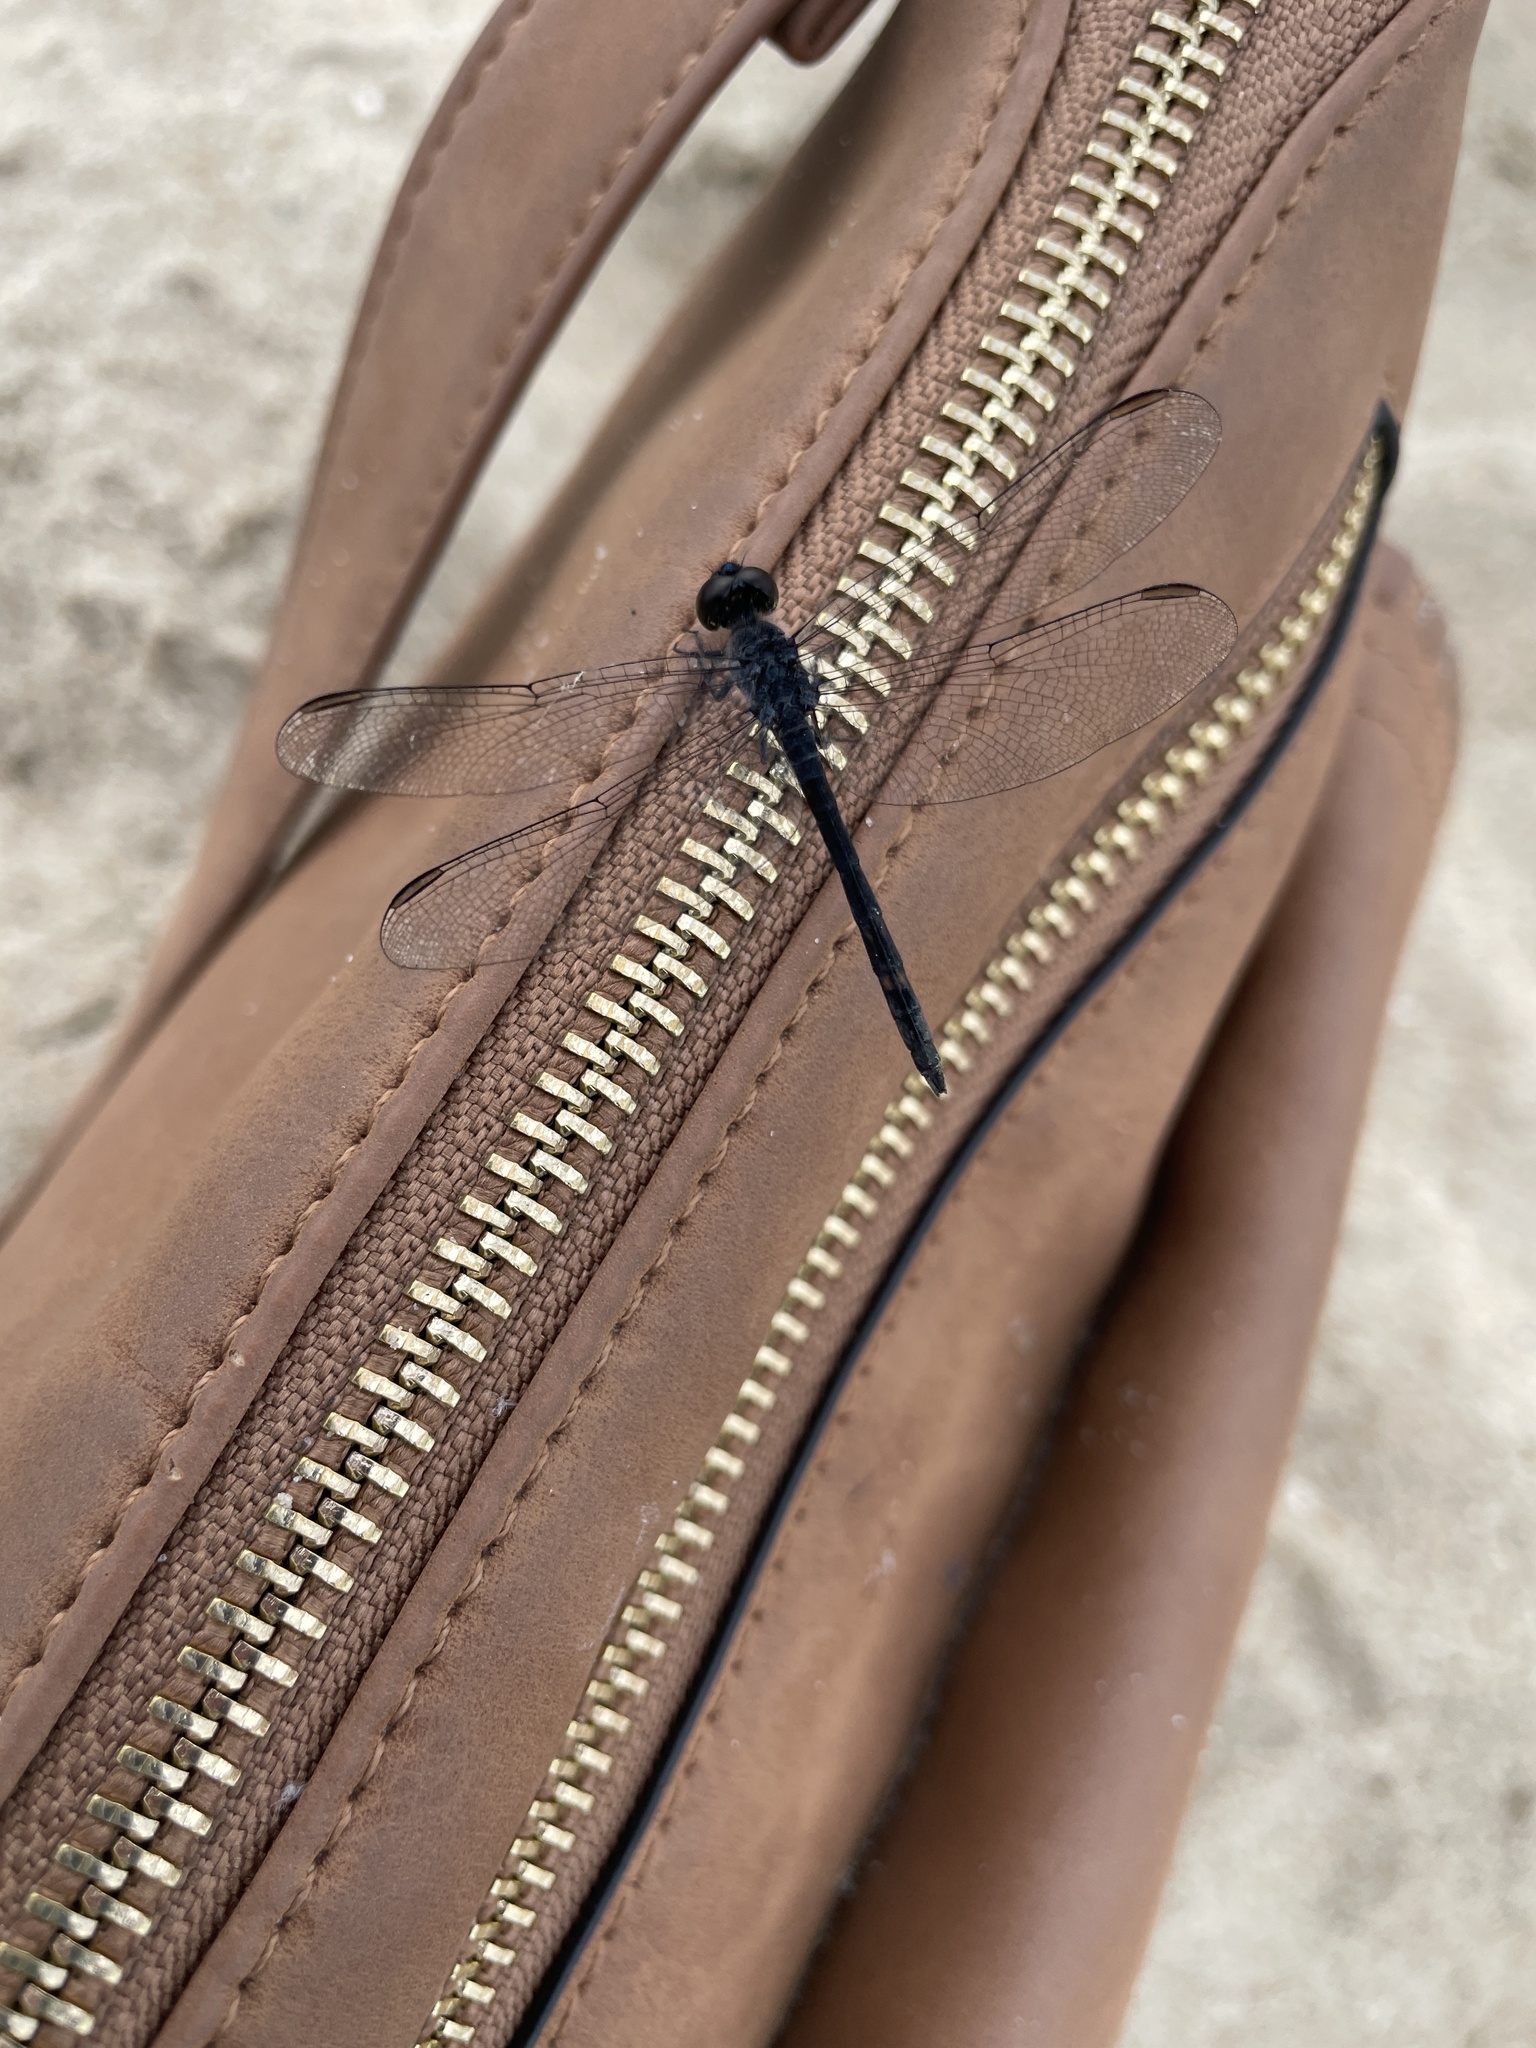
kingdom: Animalia
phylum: Arthropoda
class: Insecta
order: Odonata
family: Libellulidae
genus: Erythrodiplax
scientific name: Erythrodiplax berenice
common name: Seaside dragonlet
